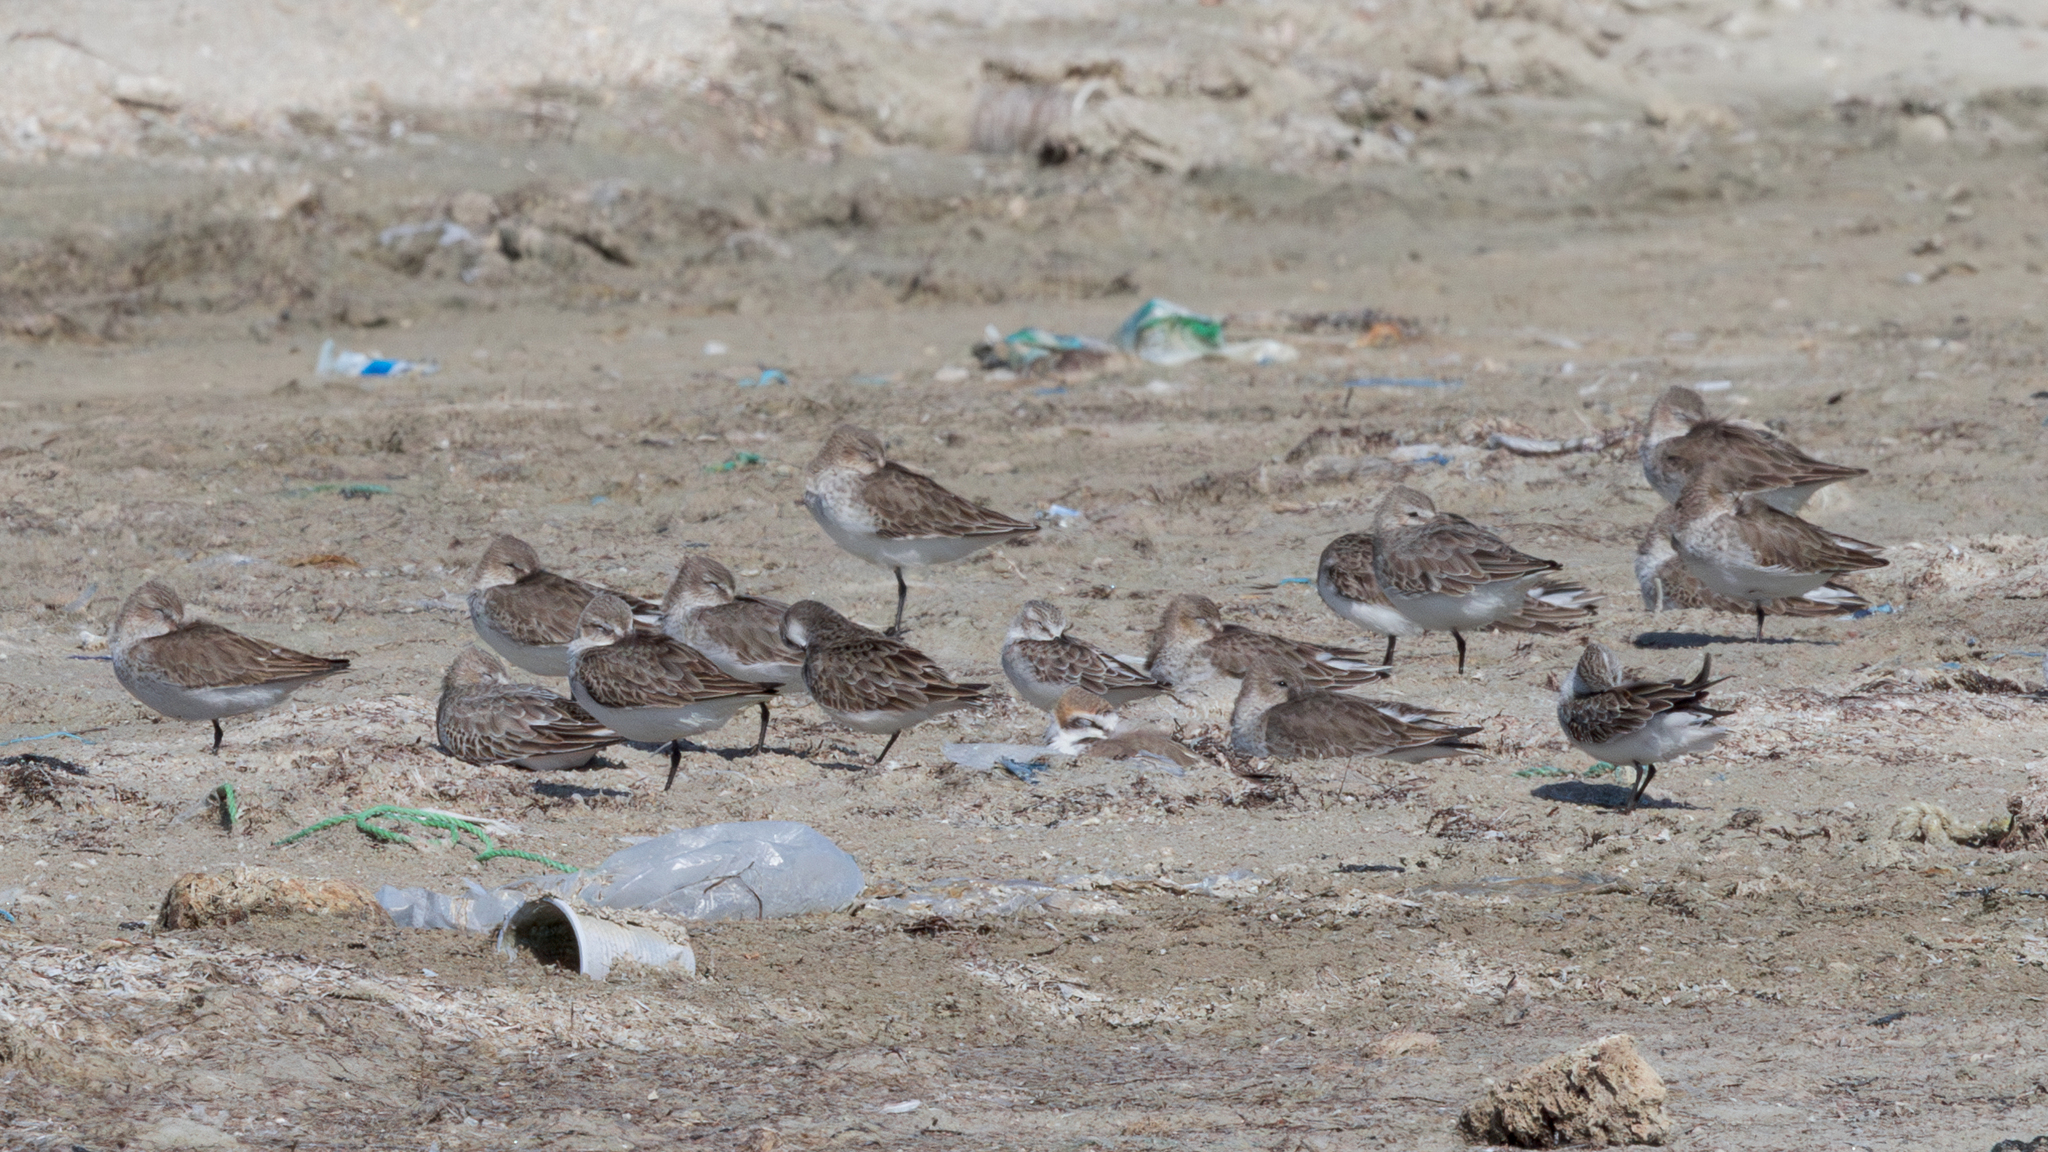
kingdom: Animalia
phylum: Chordata
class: Aves
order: Charadriiformes
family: Scolopacidae
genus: Calidris
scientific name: Calidris minuta
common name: Little stint
